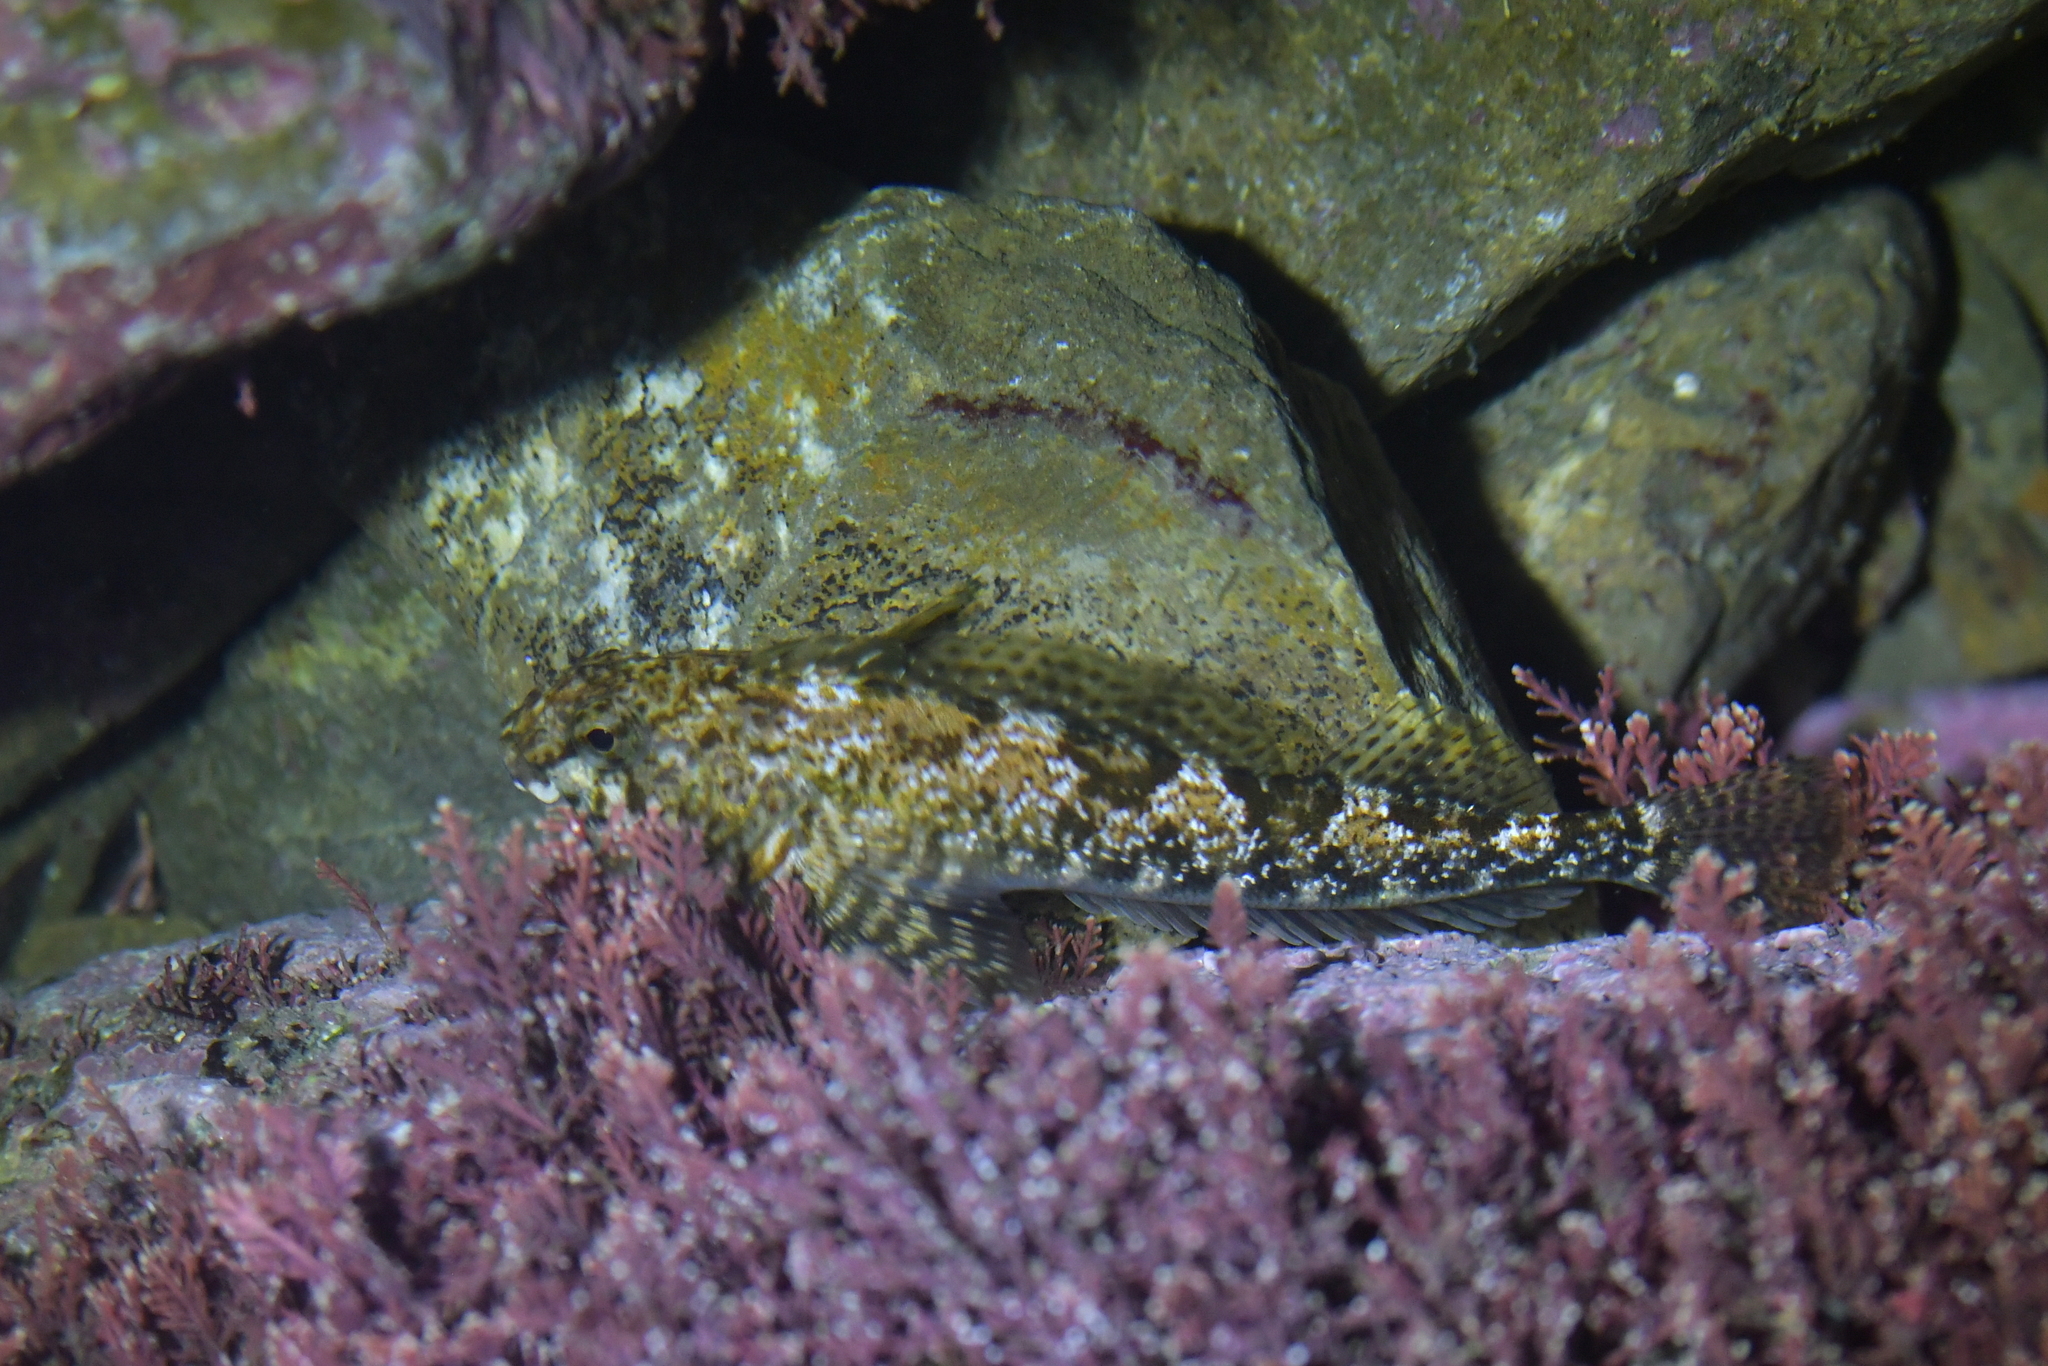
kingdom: Animalia
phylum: Chordata
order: Perciformes
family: Tripterygiidae
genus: Bellapiscis
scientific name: Bellapiscis medius
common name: Twister
